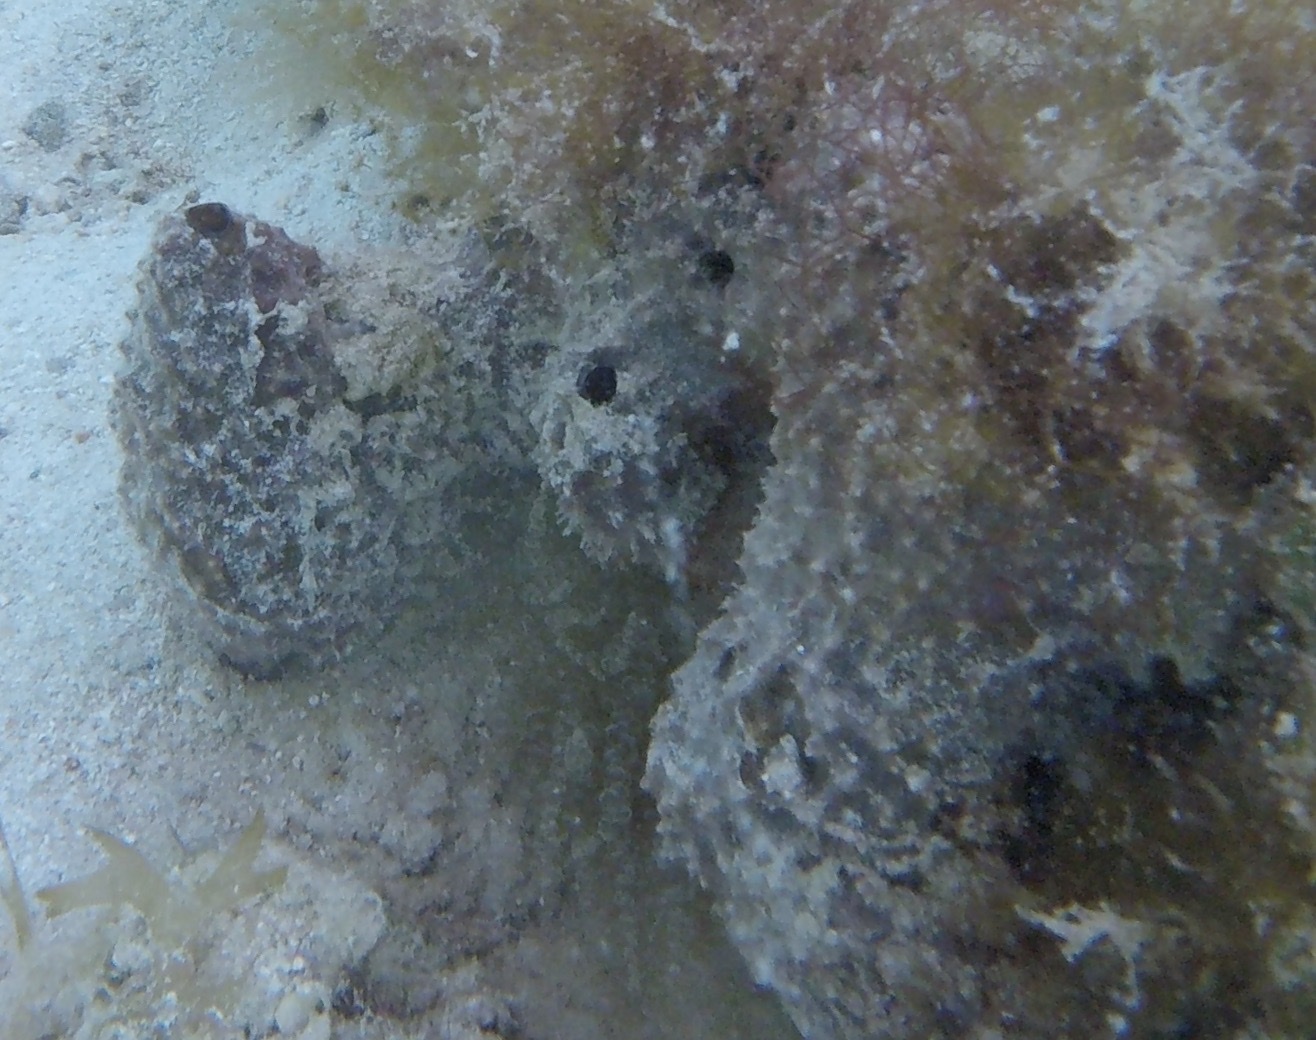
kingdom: Animalia
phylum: Porifera
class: Demospongiae
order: Verongiida
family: Aplysinidae
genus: Aiolochroia
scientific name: Aiolochroia crassa
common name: Branching tube sponge
